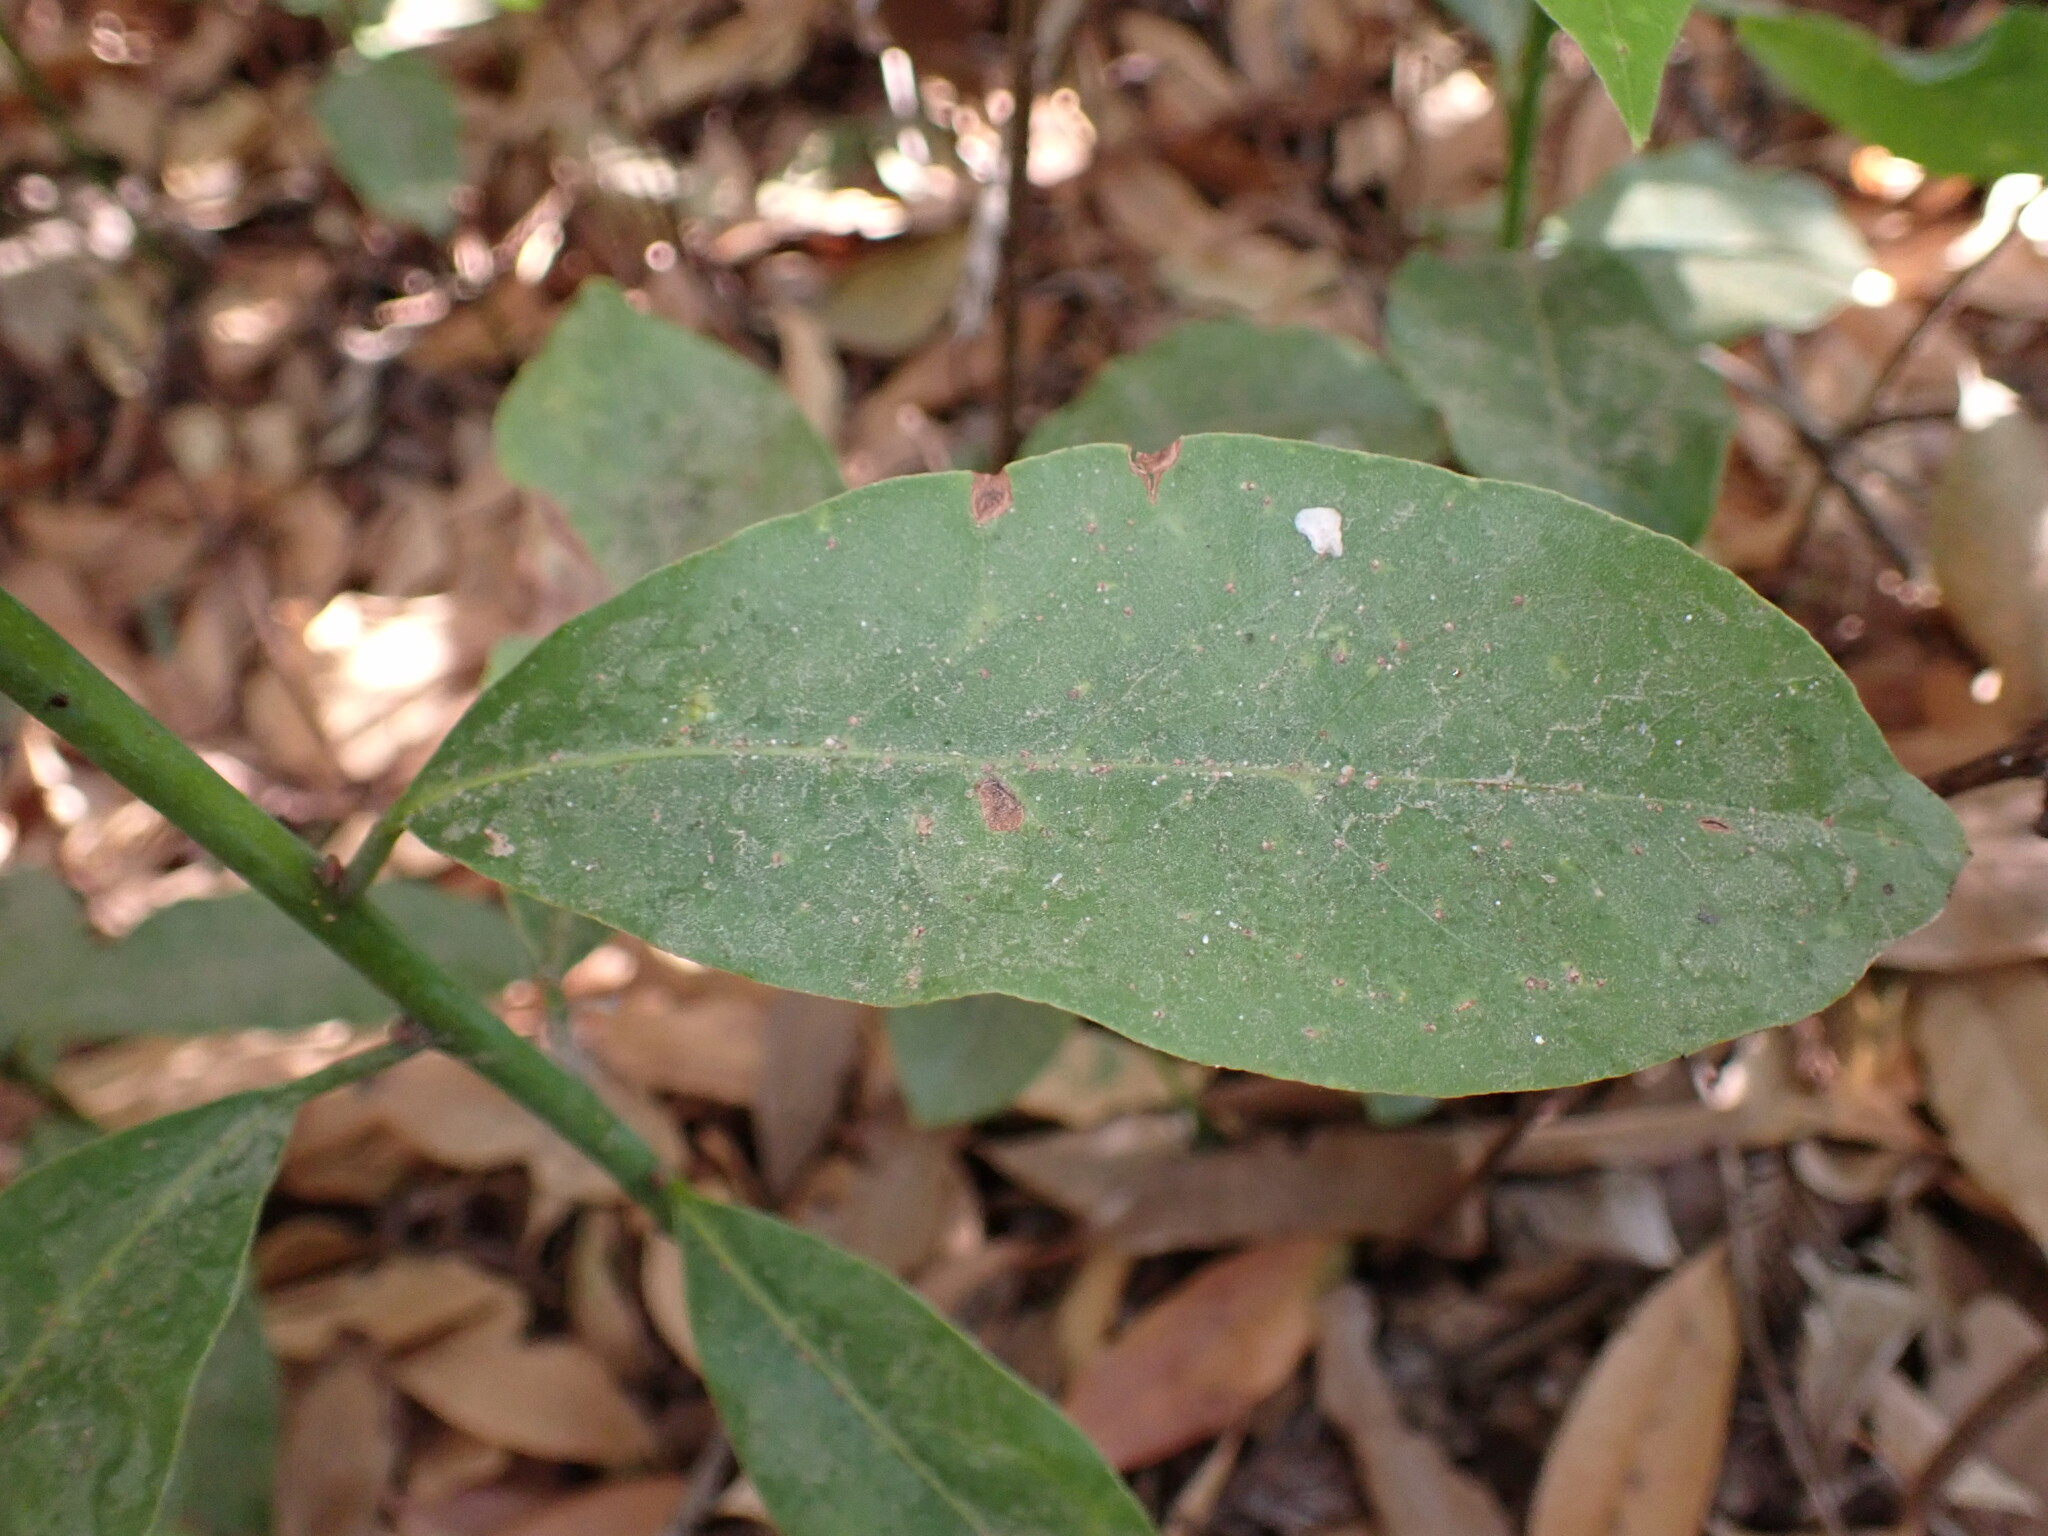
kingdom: Plantae
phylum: Tracheophyta
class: Magnoliopsida
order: Laurales
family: Lauraceae
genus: Laurus
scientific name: Laurus nobilis
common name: Bay
